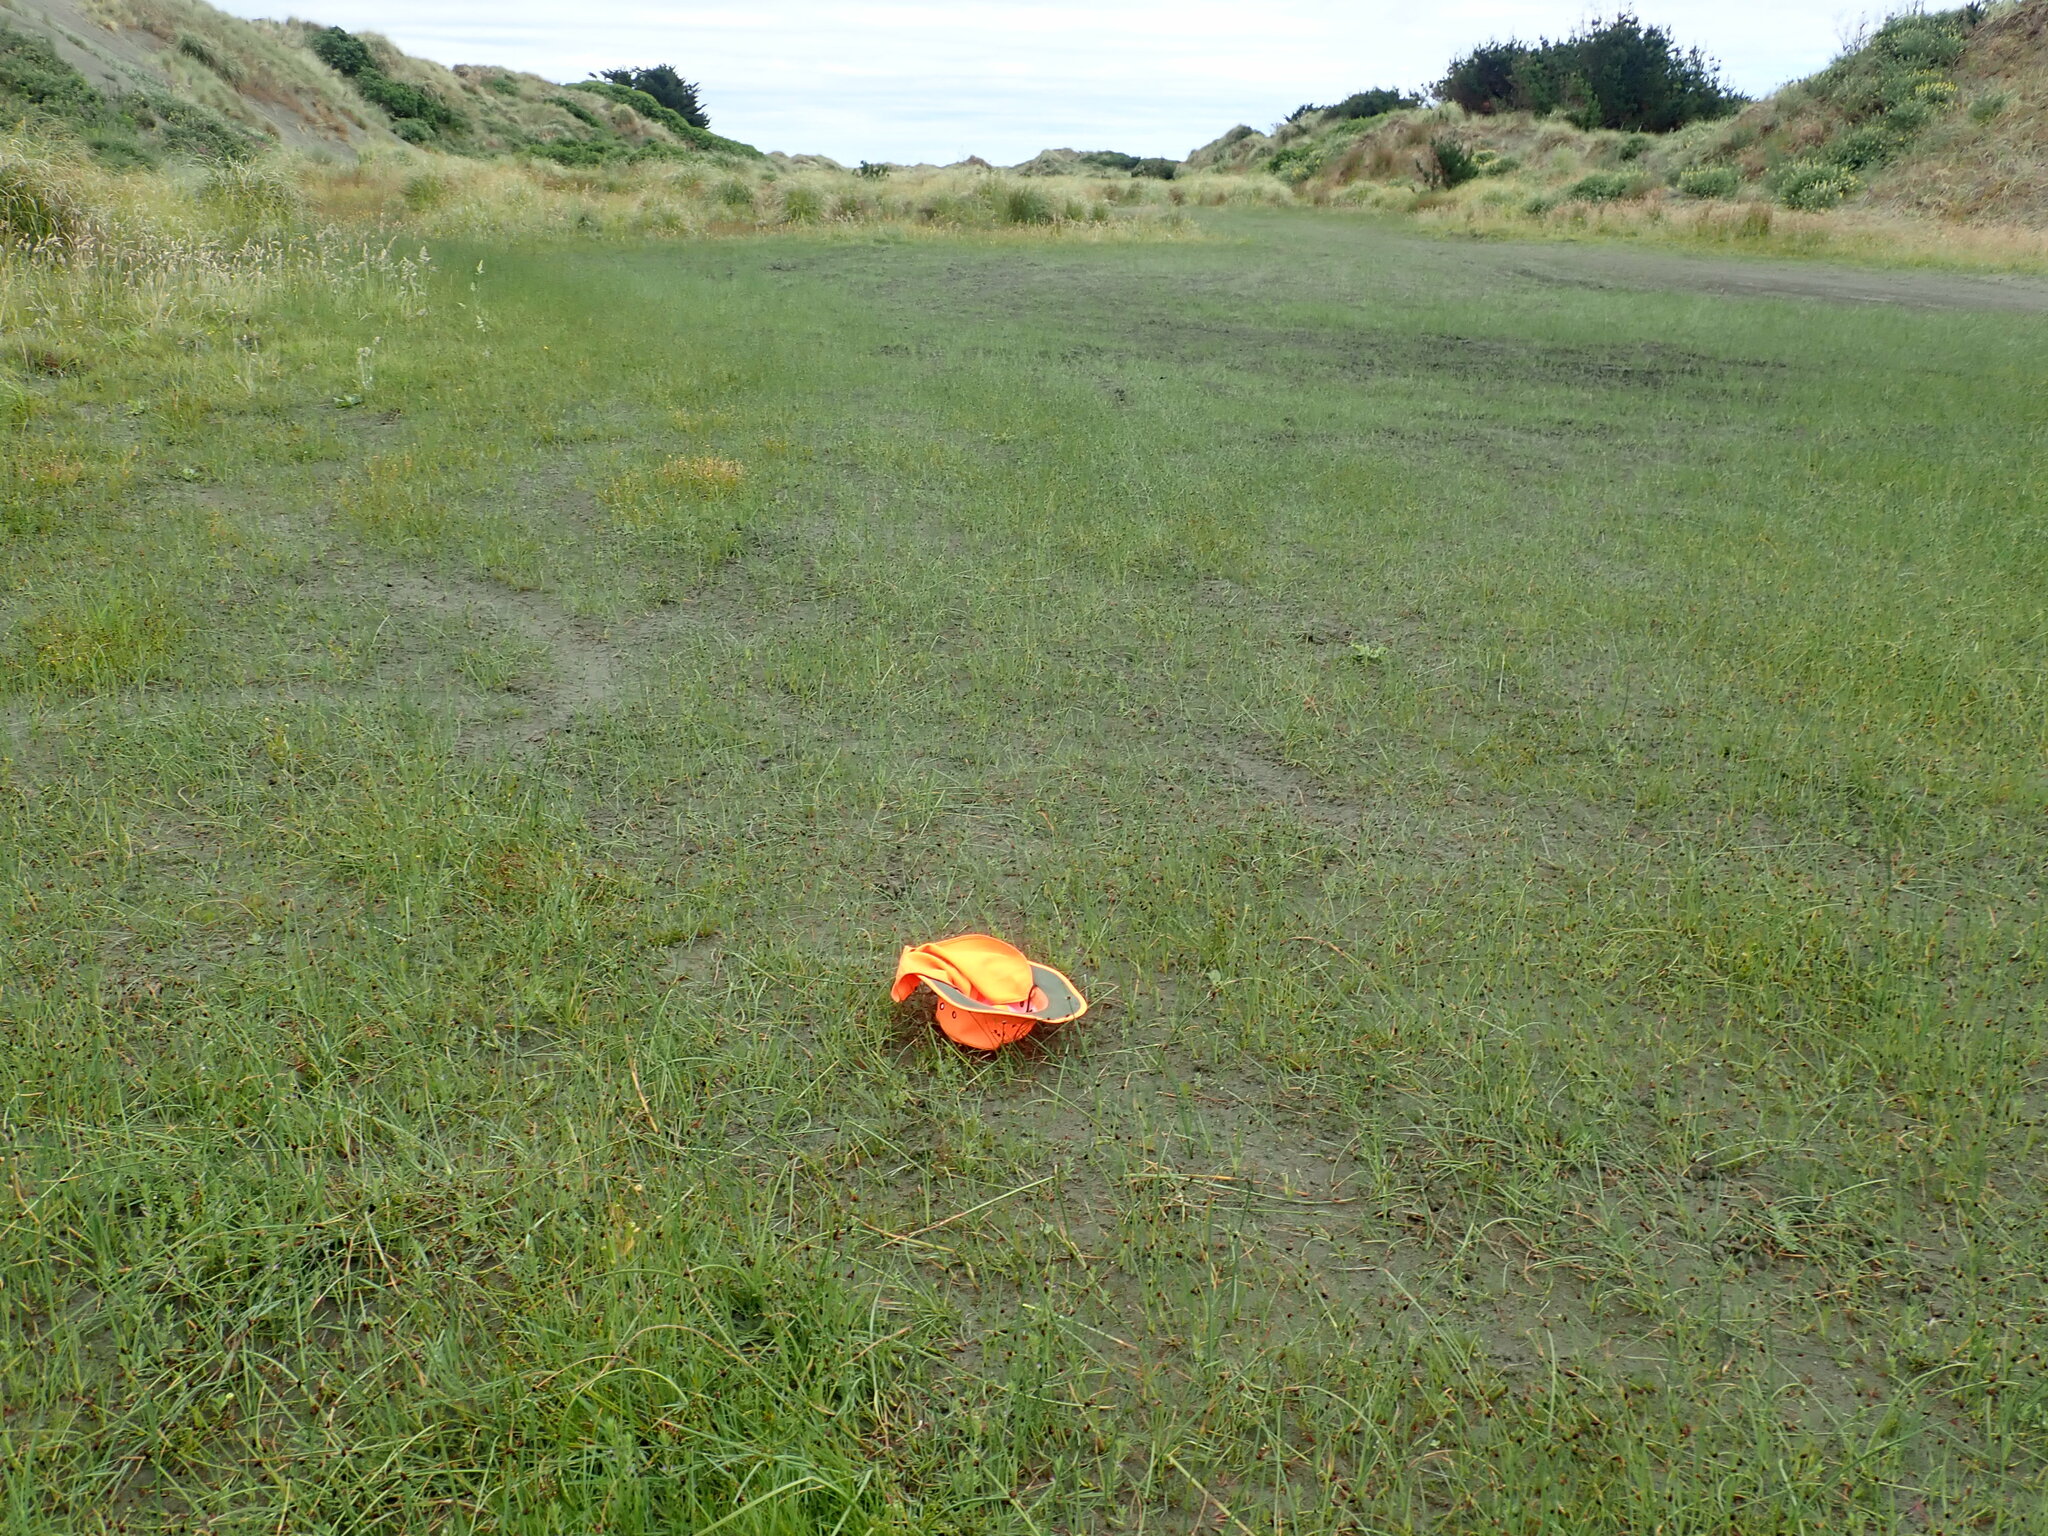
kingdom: Plantae
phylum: Tracheophyta
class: Magnoliopsida
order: Lamiales
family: Scrophulariaceae
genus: Limosella
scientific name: Limosella australis
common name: Welsh mudwort
